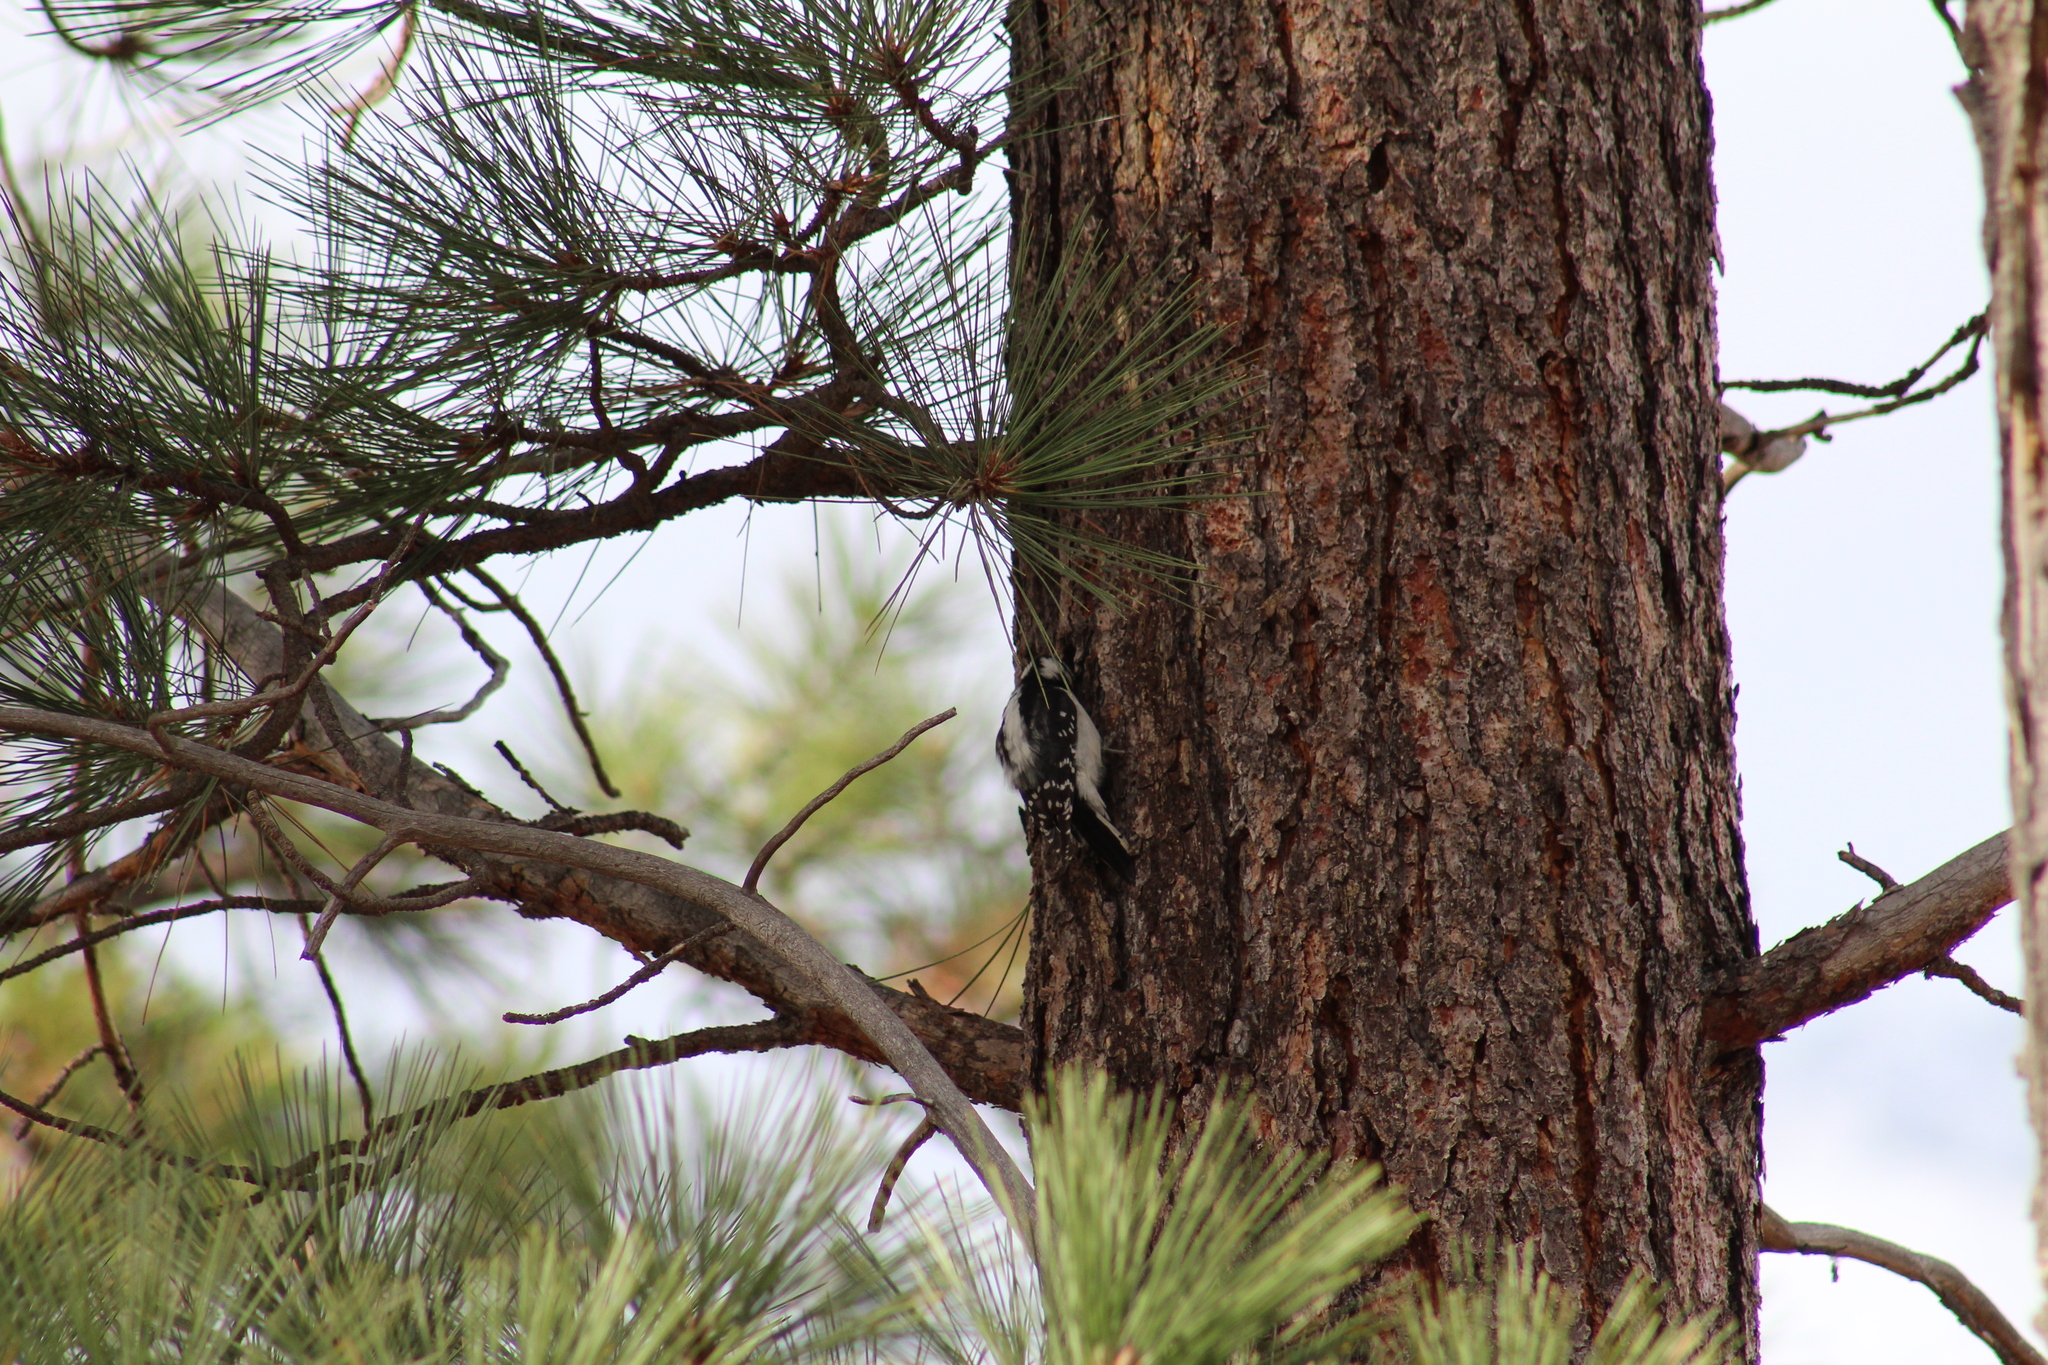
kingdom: Animalia
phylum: Chordata
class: Aves
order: Piciformes
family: Picidae
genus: Dryobates
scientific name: Dryobates pubescens
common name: Downy woodpecker
